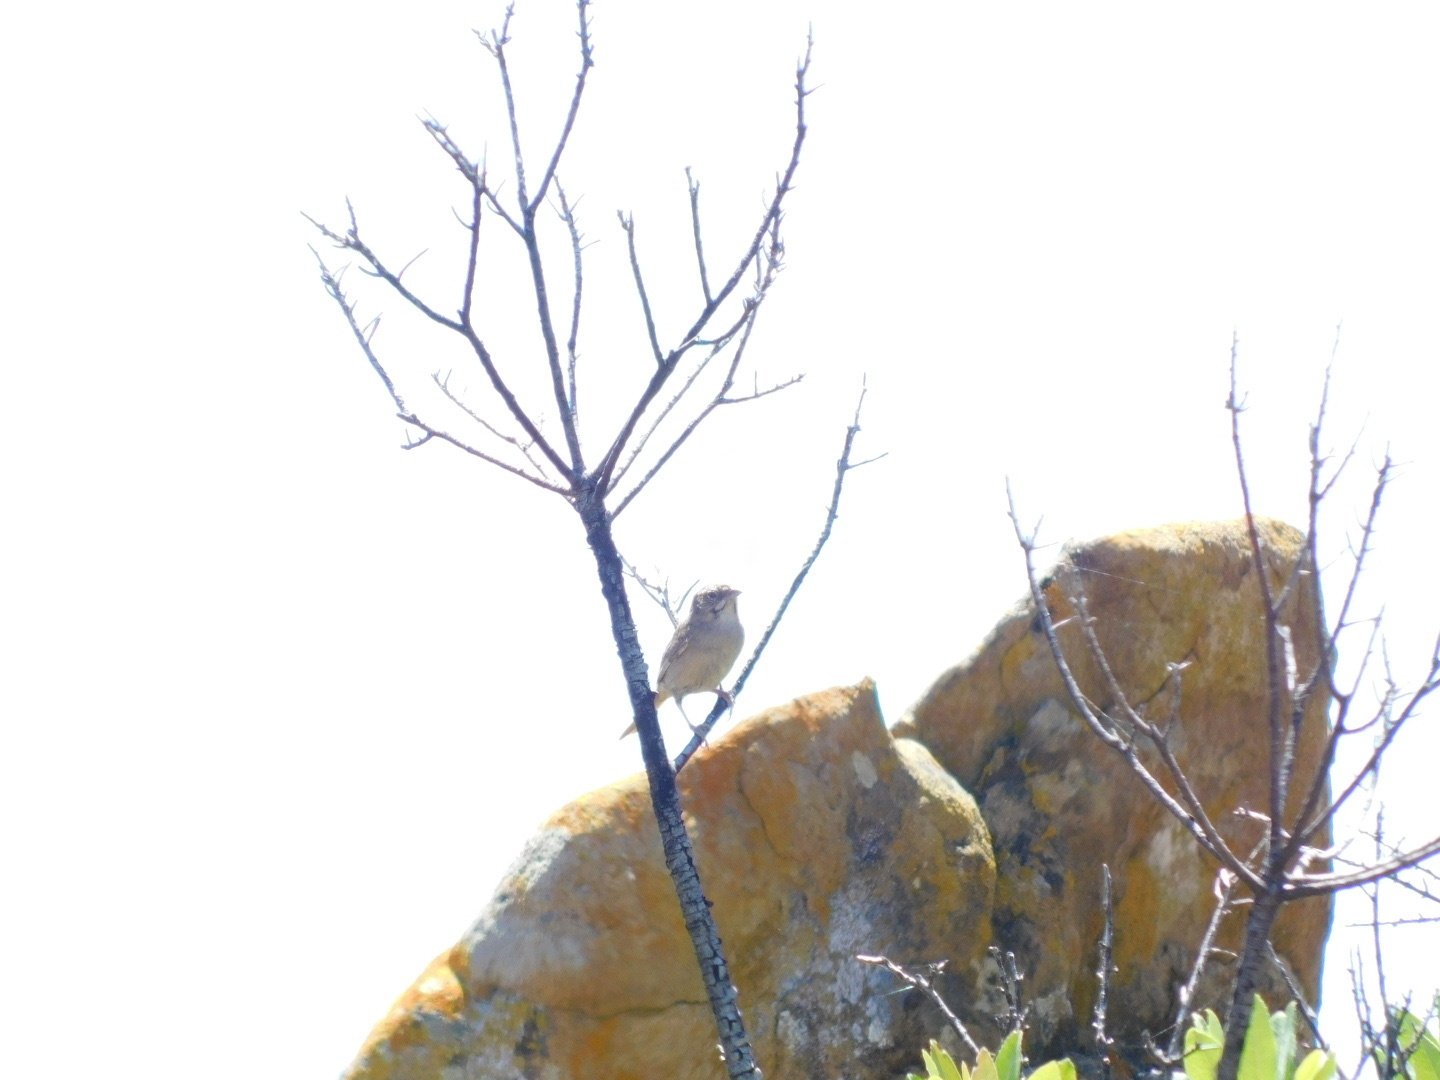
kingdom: Animalia
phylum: Chordata
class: Aves
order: Passeriformes
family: Passerellidae
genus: Aimophila
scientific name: Aimophila ruficeps
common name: Rufous-crowned sparrow
